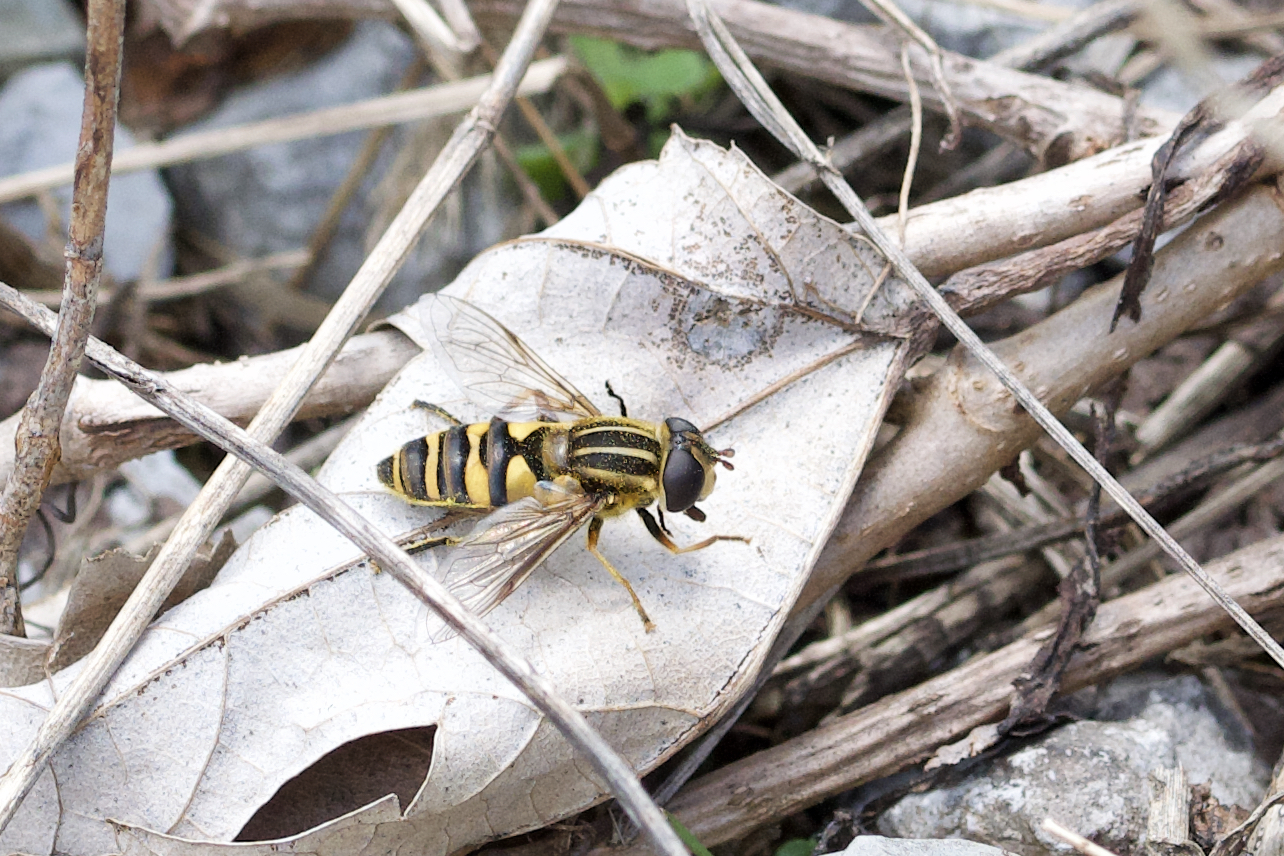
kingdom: Animalia
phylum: Arthropoda
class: Insecta
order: Diptera
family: Syrphidae
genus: Helophilus
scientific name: Helophilus fasciatus
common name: Narrow-headed marsh fly
